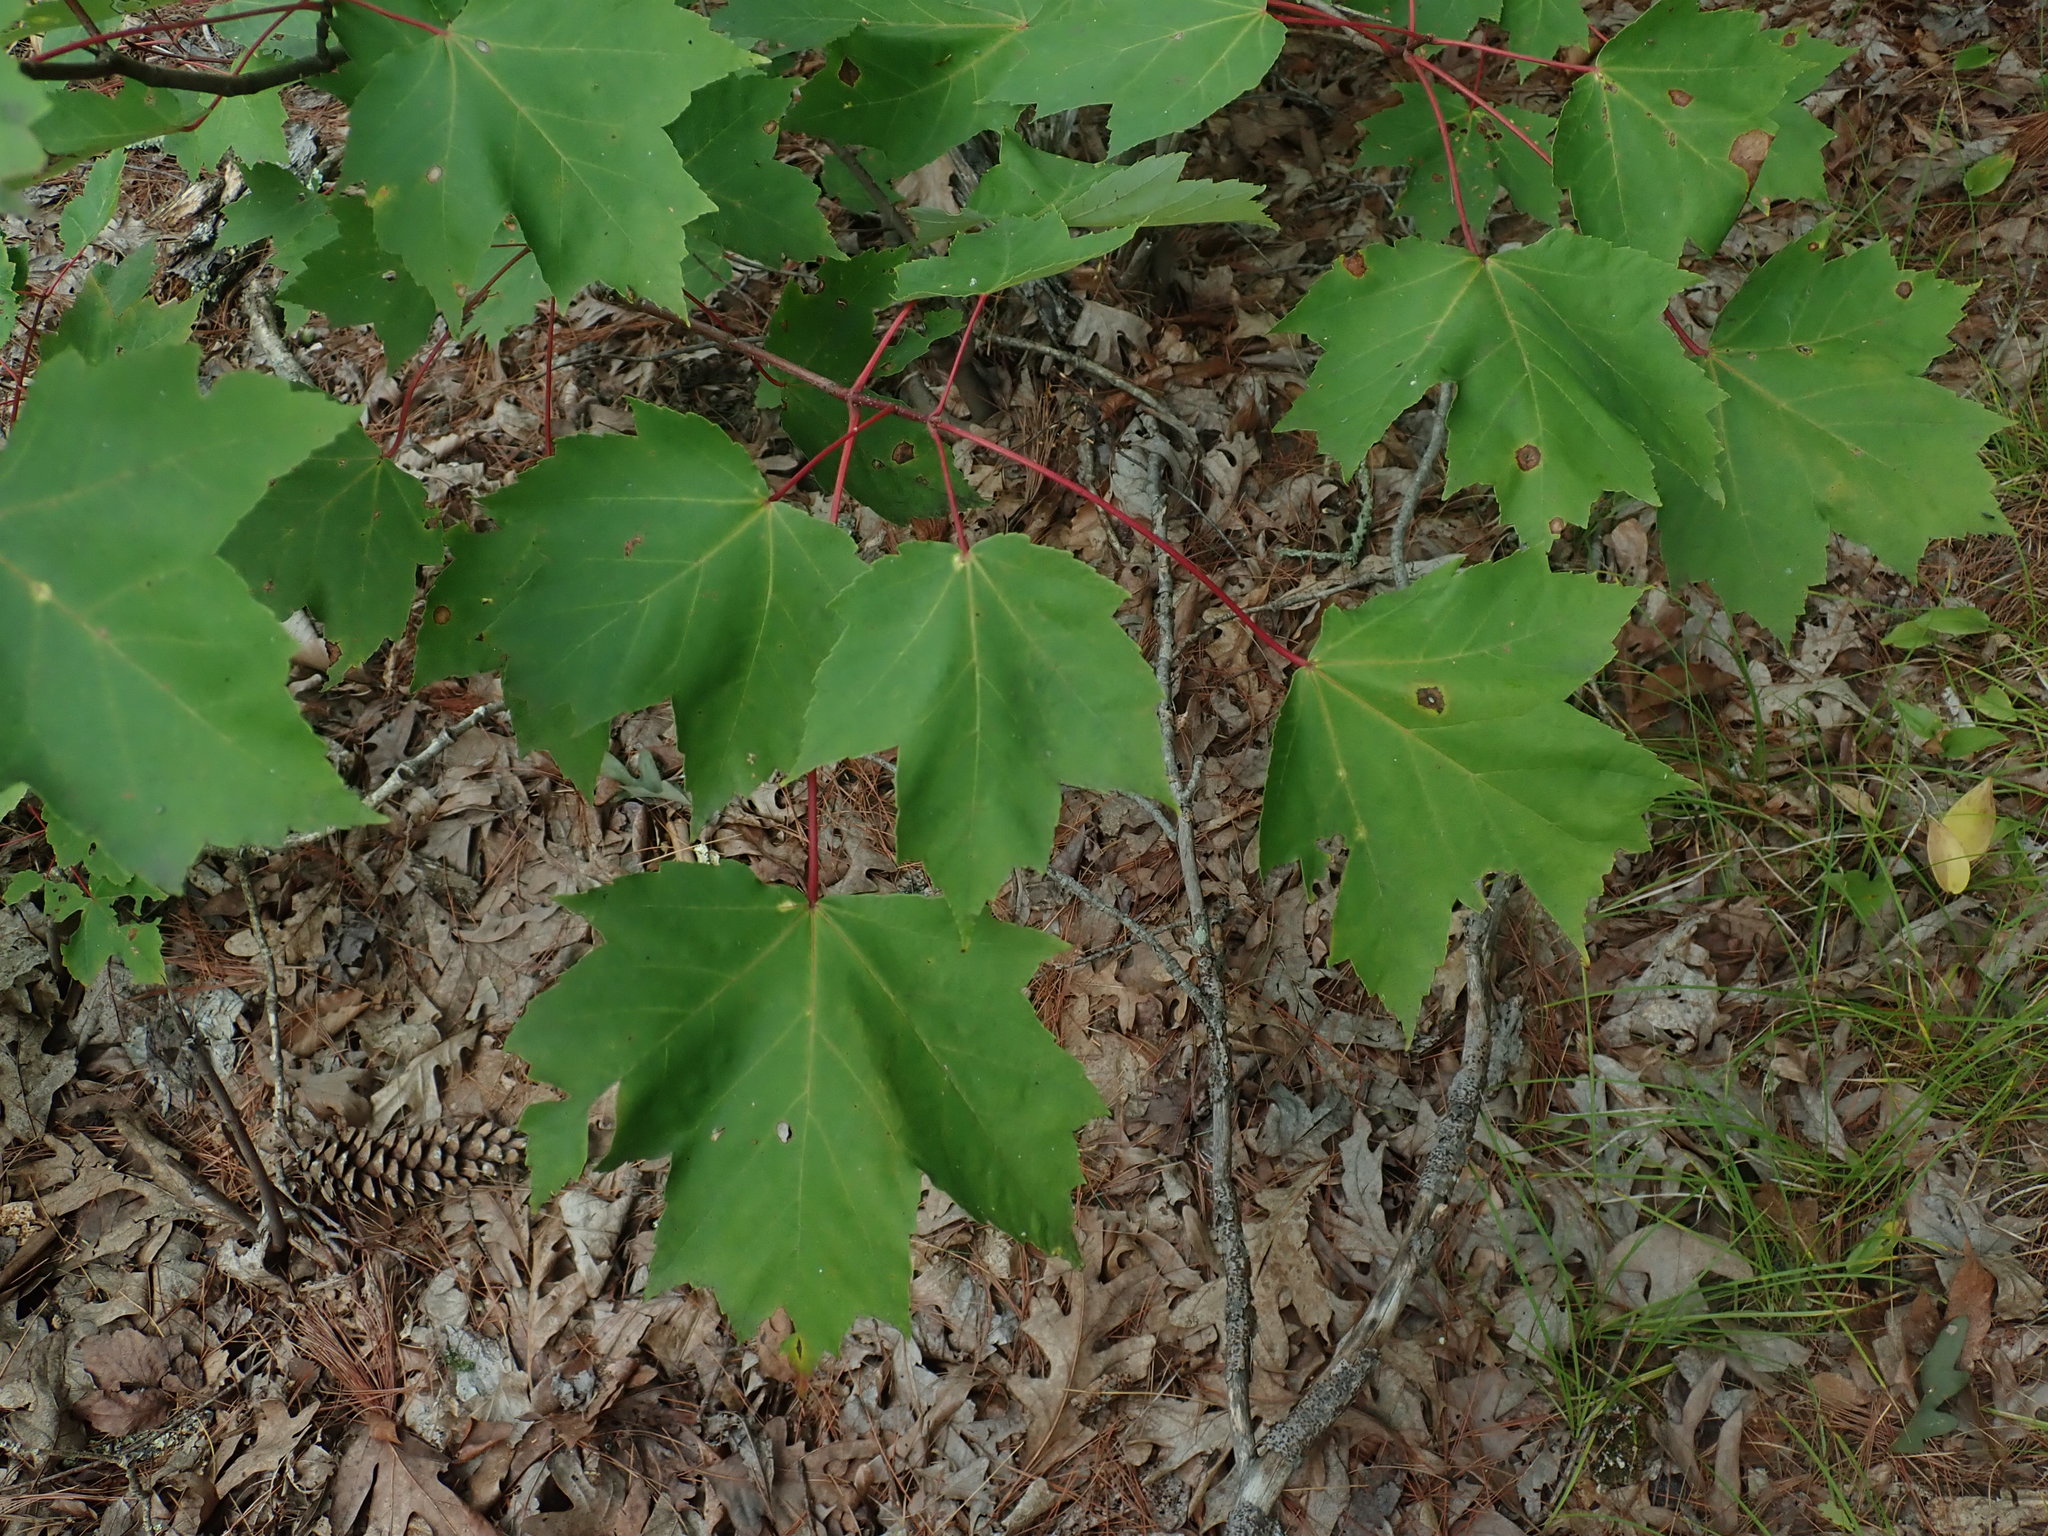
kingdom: Plantae
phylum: Tracheophyta
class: Magnoliopsida
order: Sapindales
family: Sapindaceae
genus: Acer
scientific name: Acer rubrum
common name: Red maple
